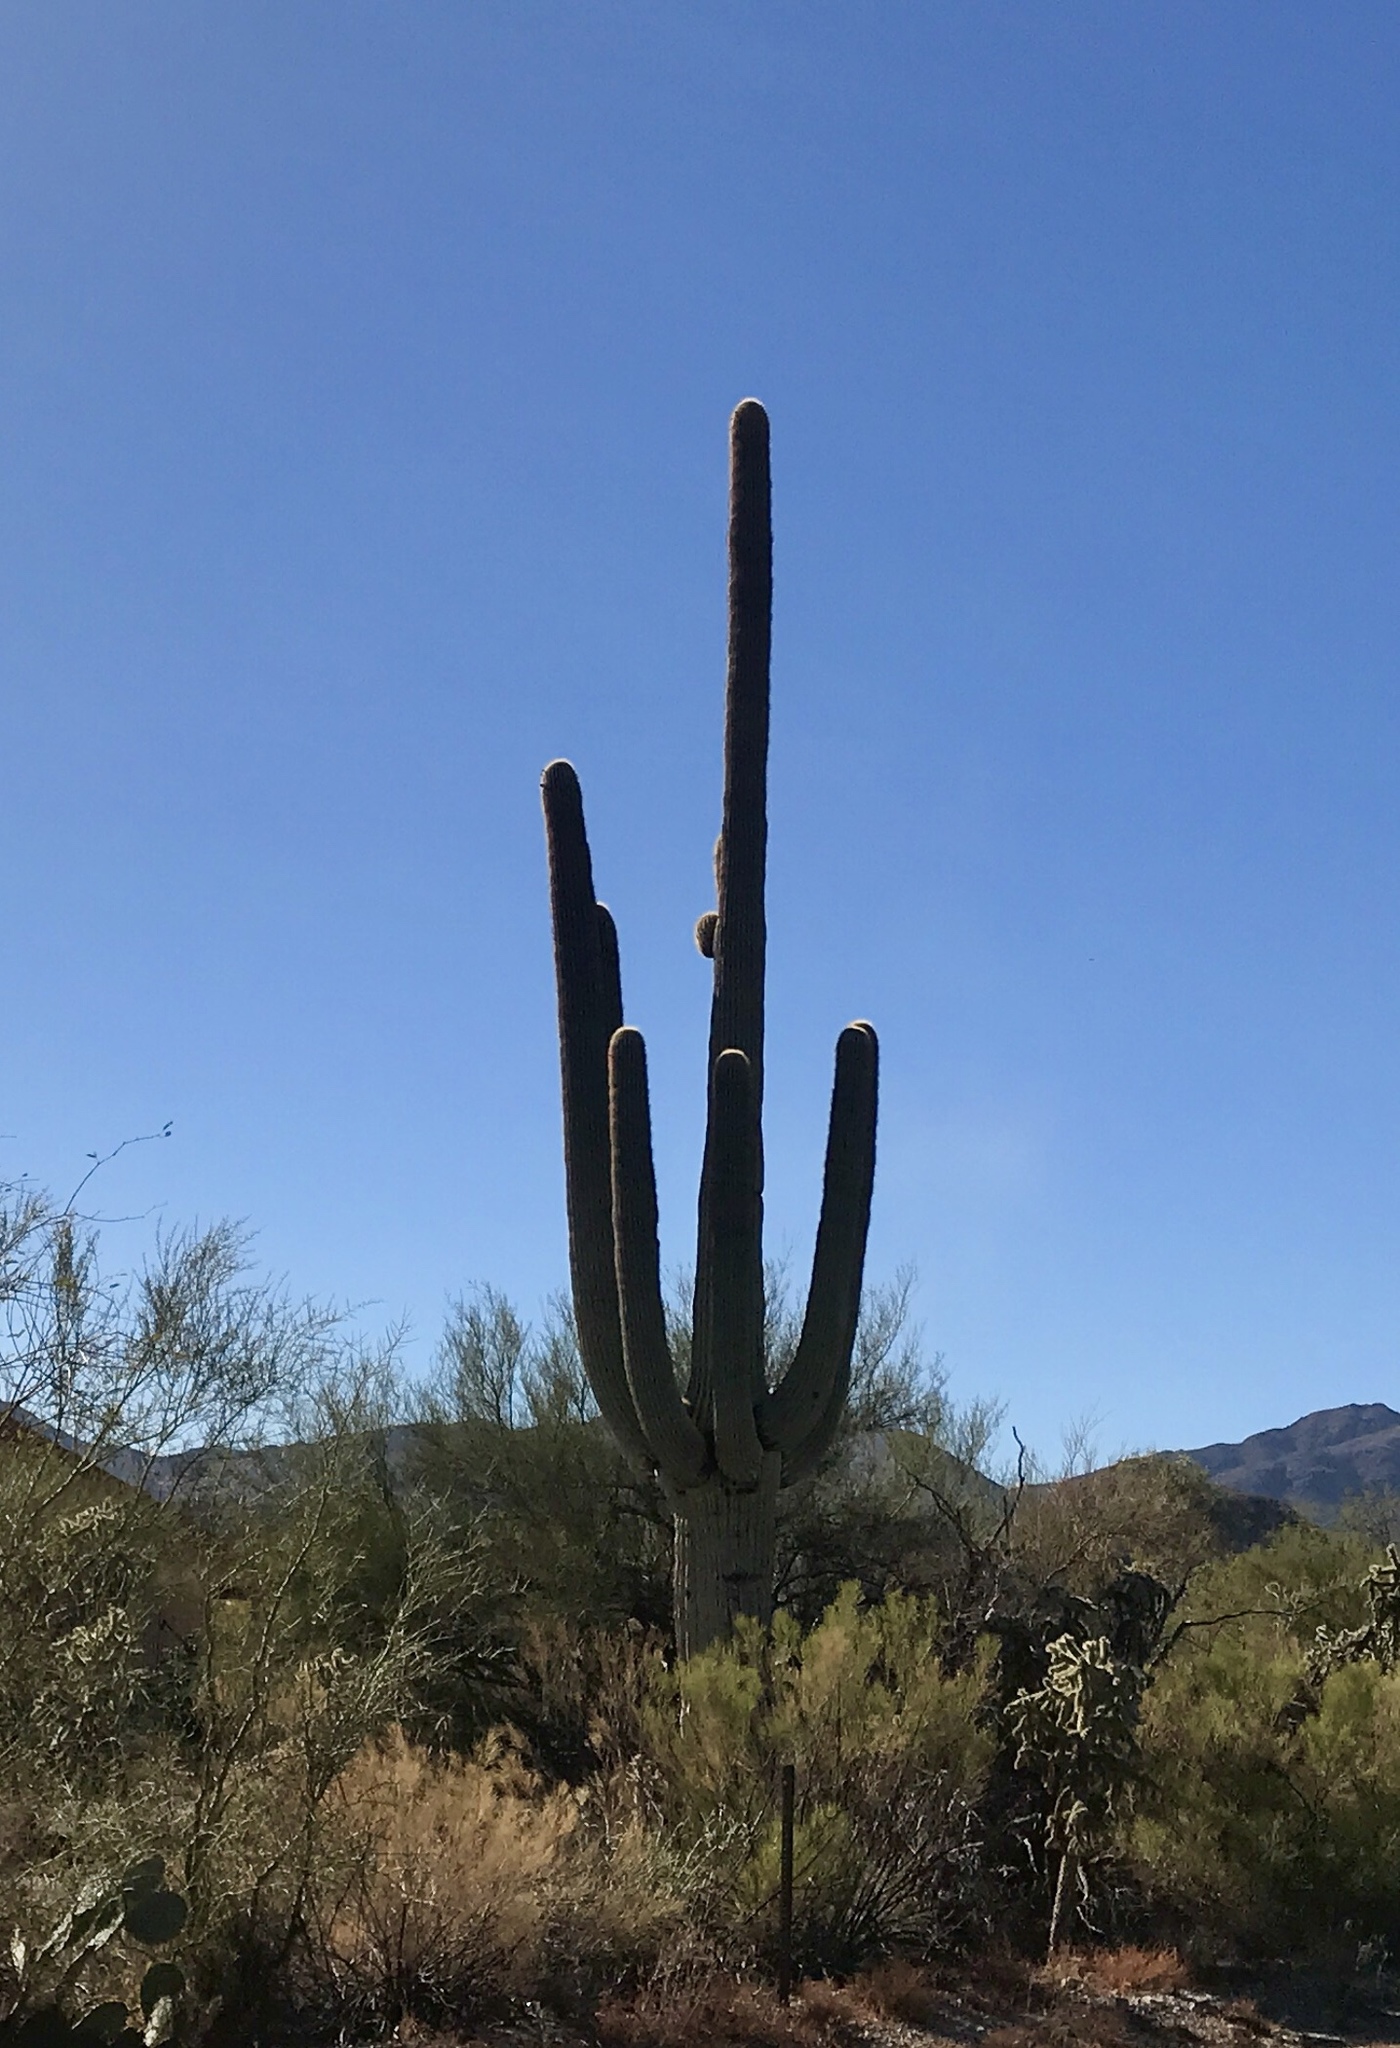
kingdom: Plantae
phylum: Tracheophyta
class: Magnoliopsida
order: Caryophyllales
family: Cactaceae
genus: Carnegiea
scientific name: Carnegiea gigantea
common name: Saguaro
